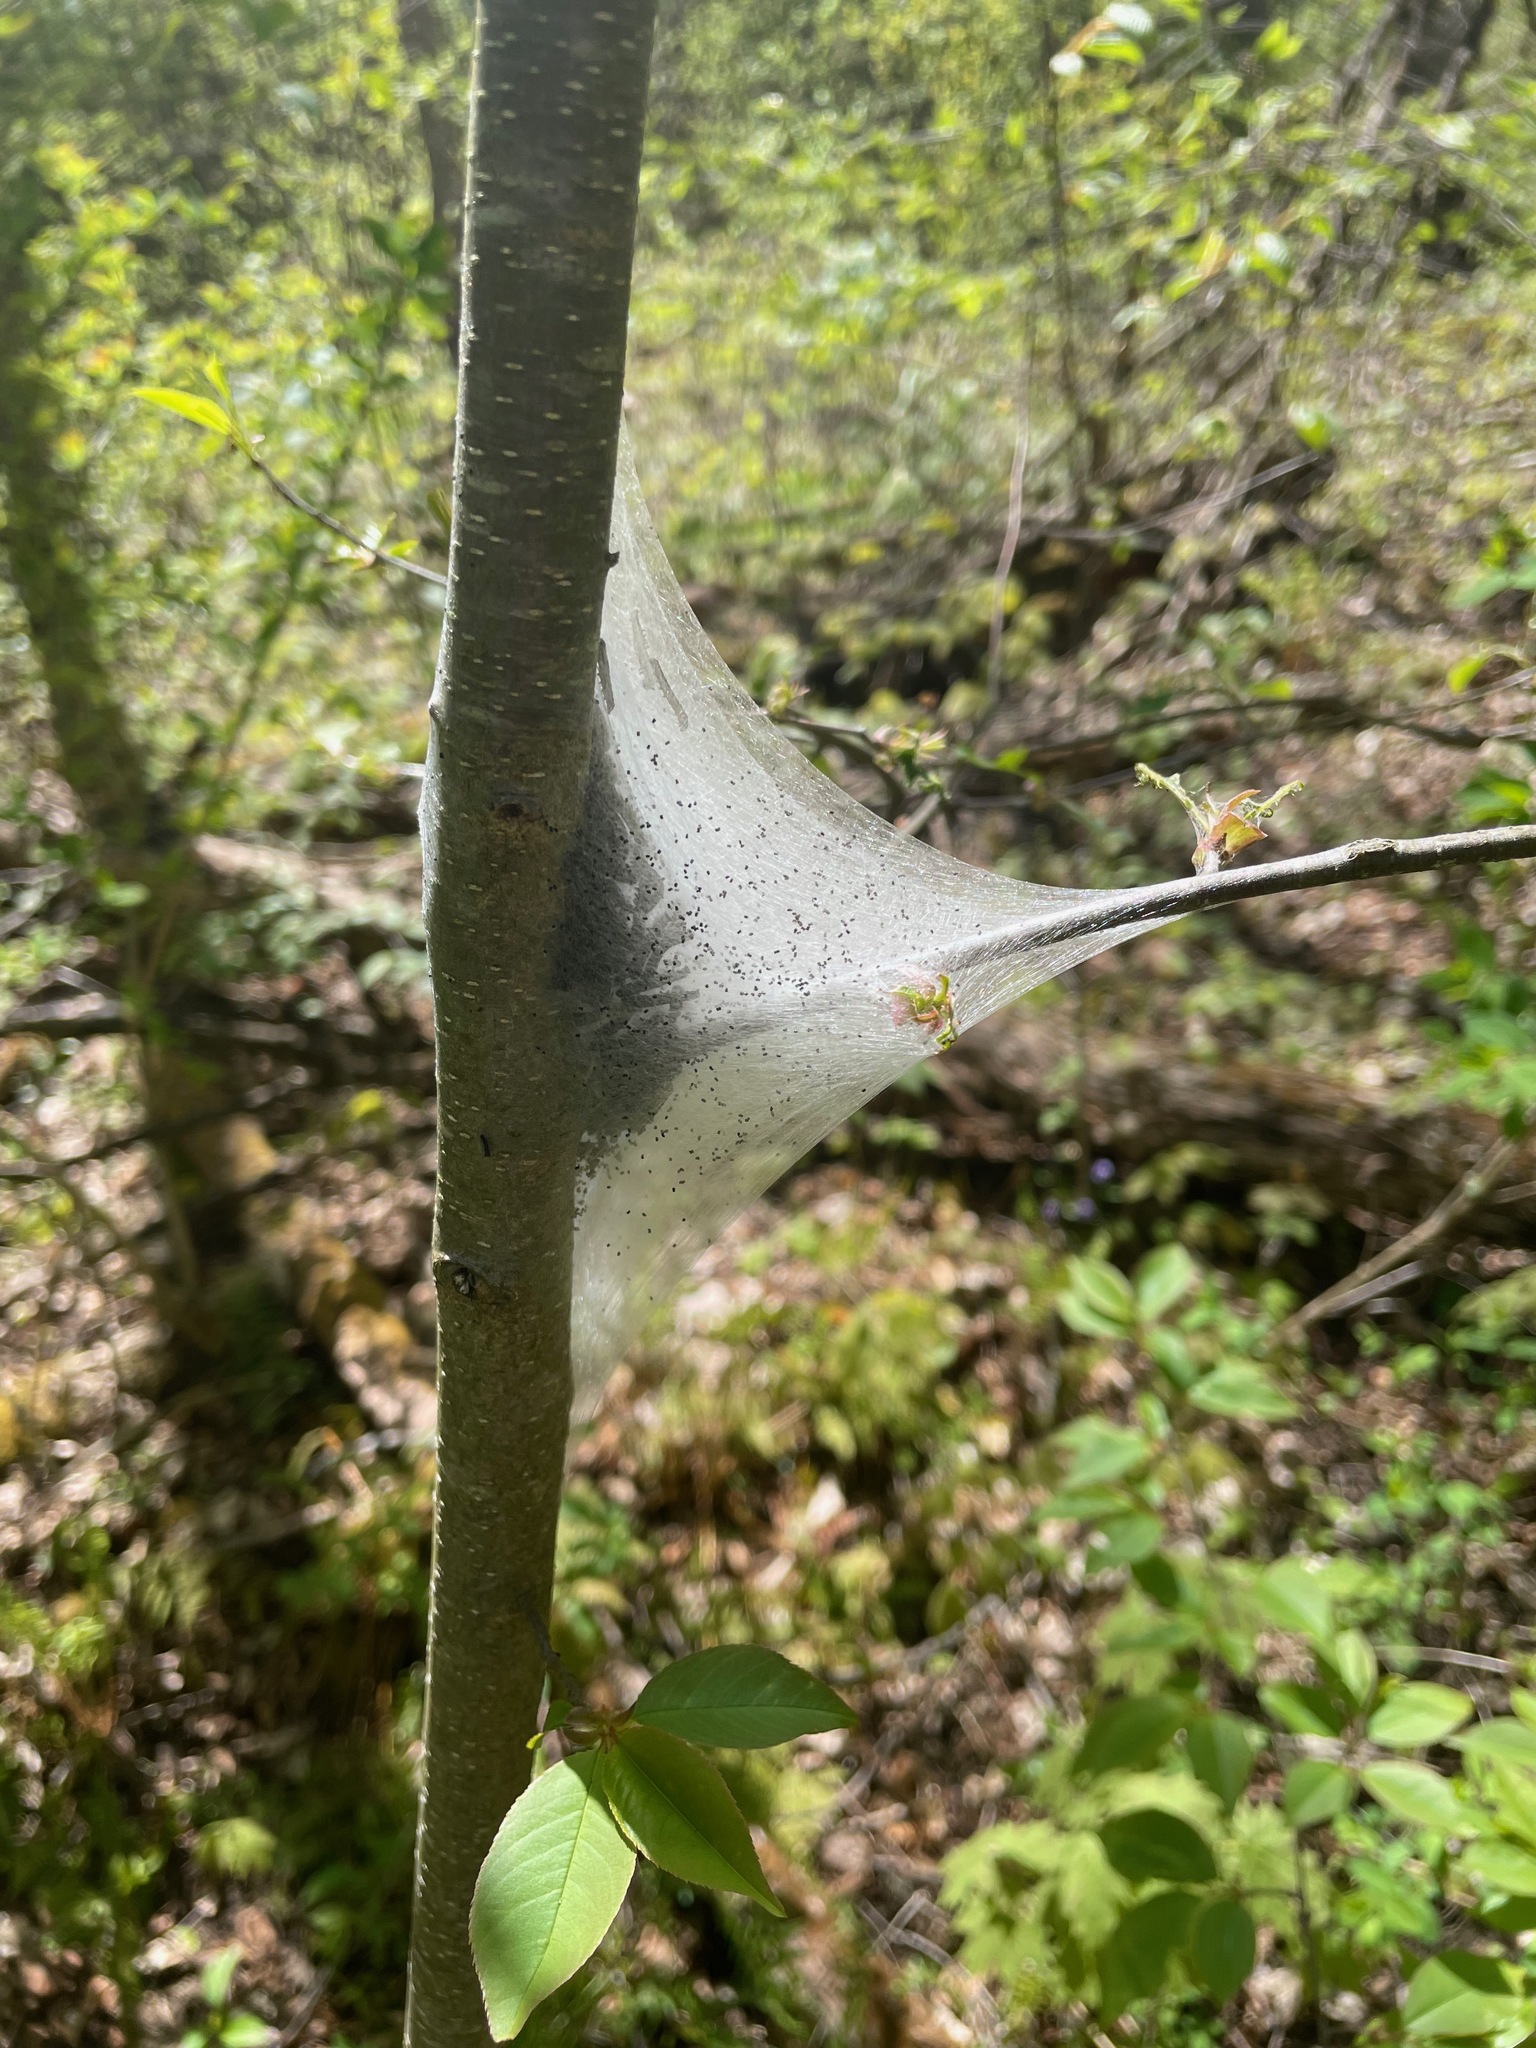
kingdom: Animalia
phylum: Arthropoda
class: Insecta
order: Lepidoptera
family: Lasiocampidae
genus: Malacosoma
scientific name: Malacosoma americana
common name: Eastern tent caterpillar moth
